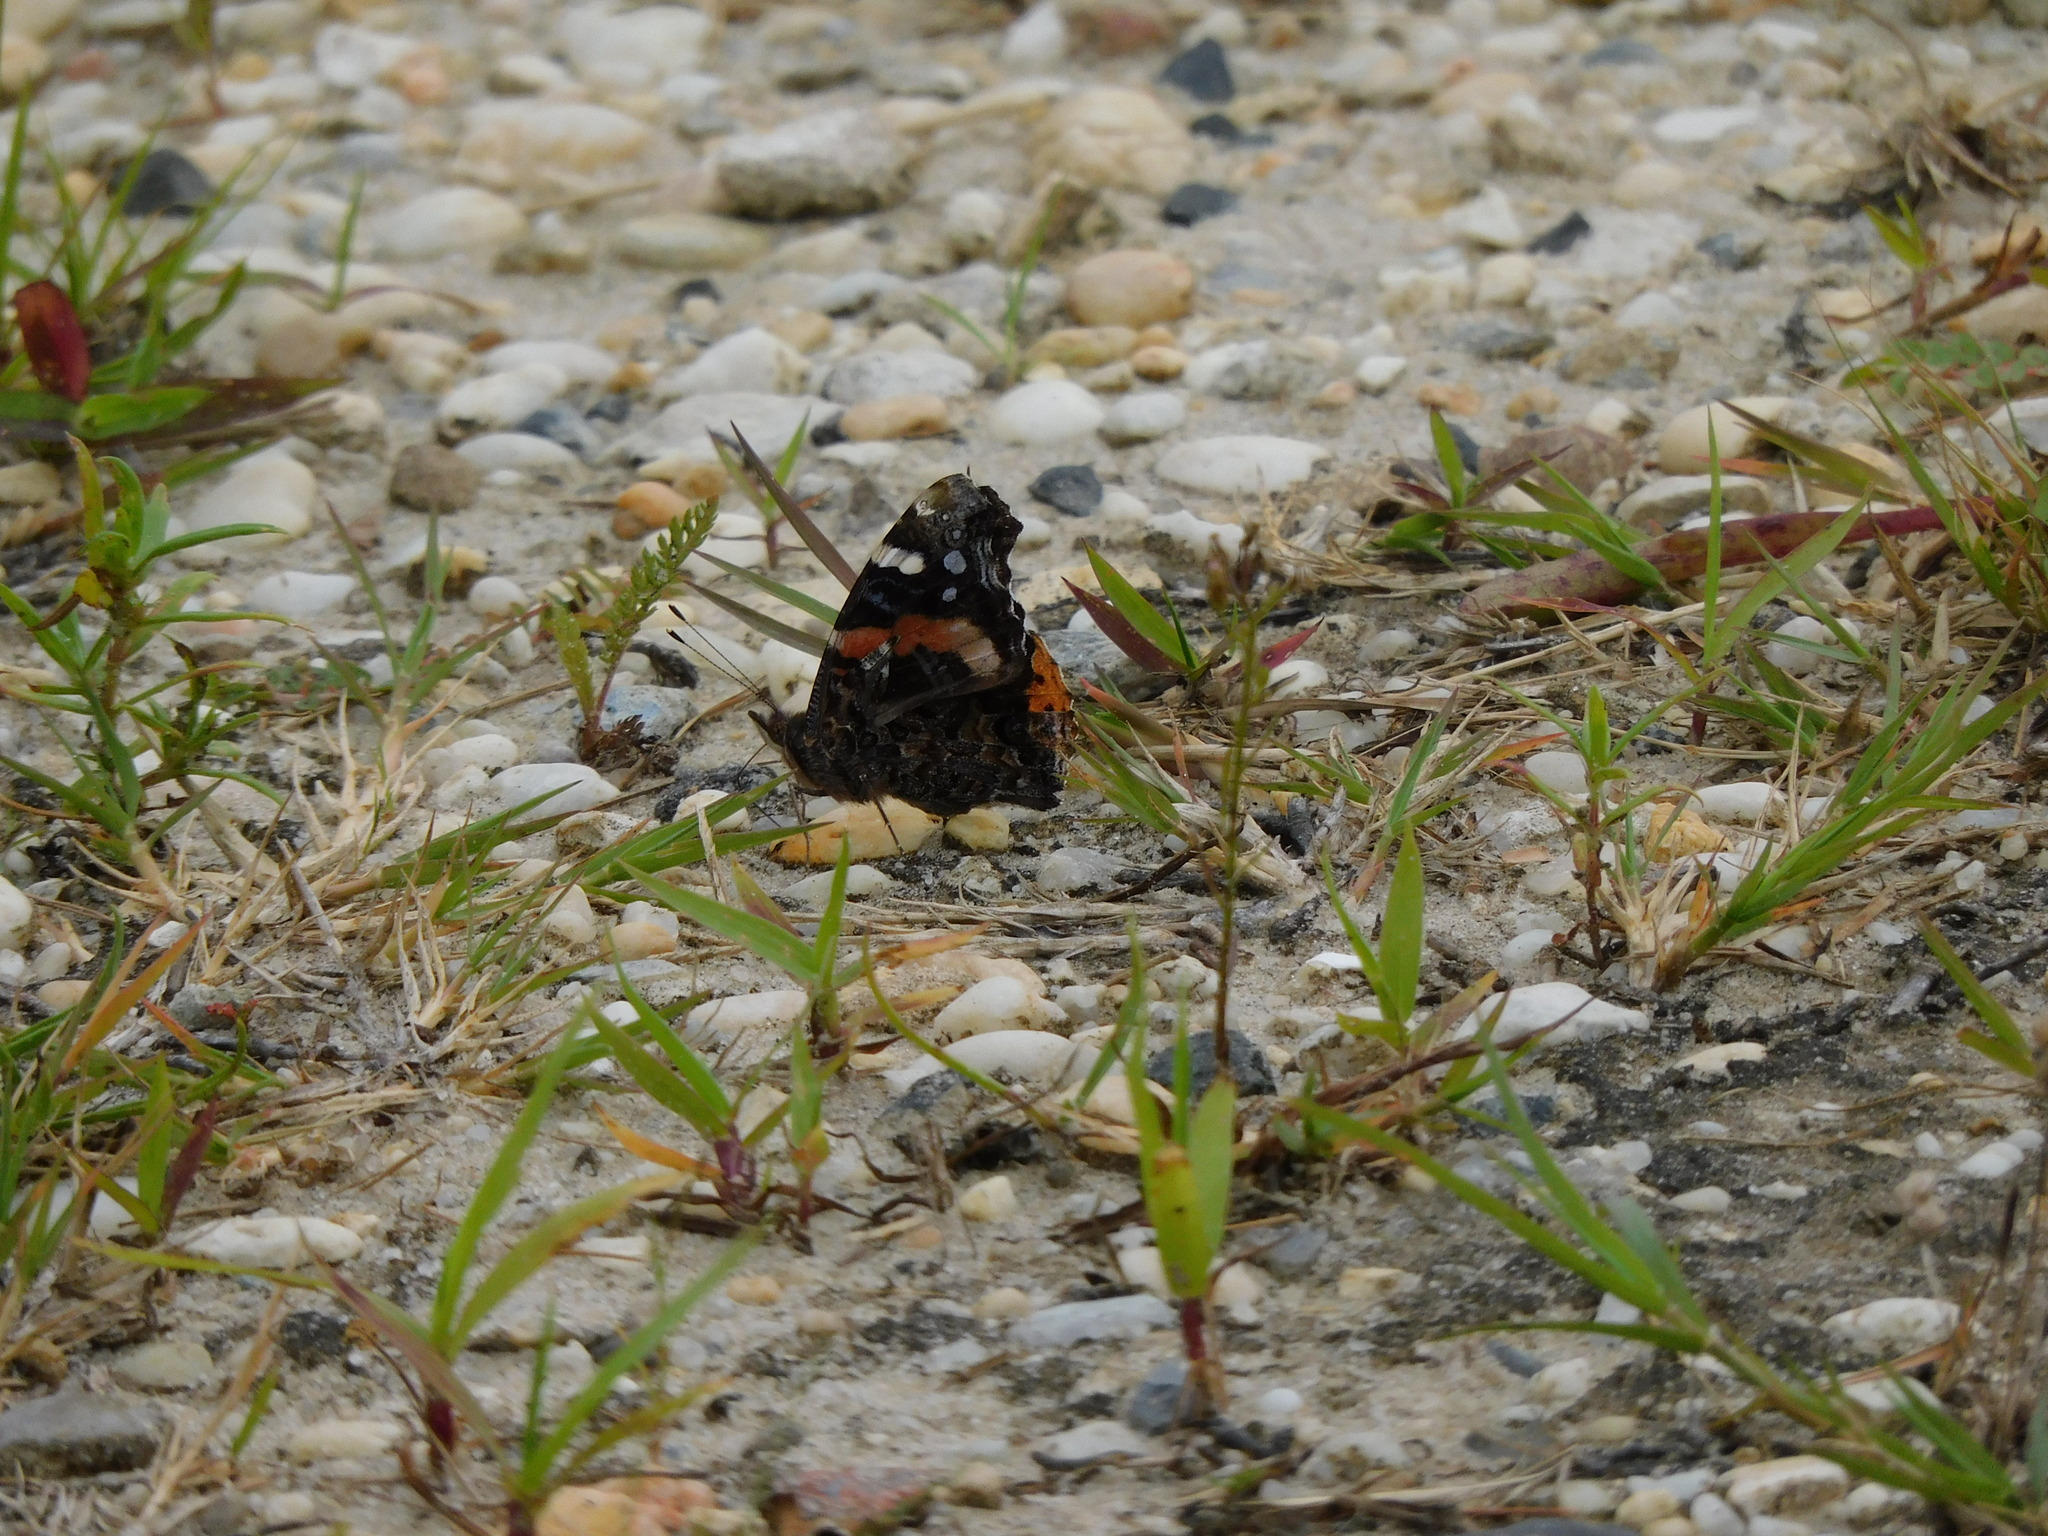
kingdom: Animalia
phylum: Arthropoda
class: Insecta
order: Lepidoptera
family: Nymphalidae
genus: Vanessa
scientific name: Vanessa atalanta
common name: Red admiral
